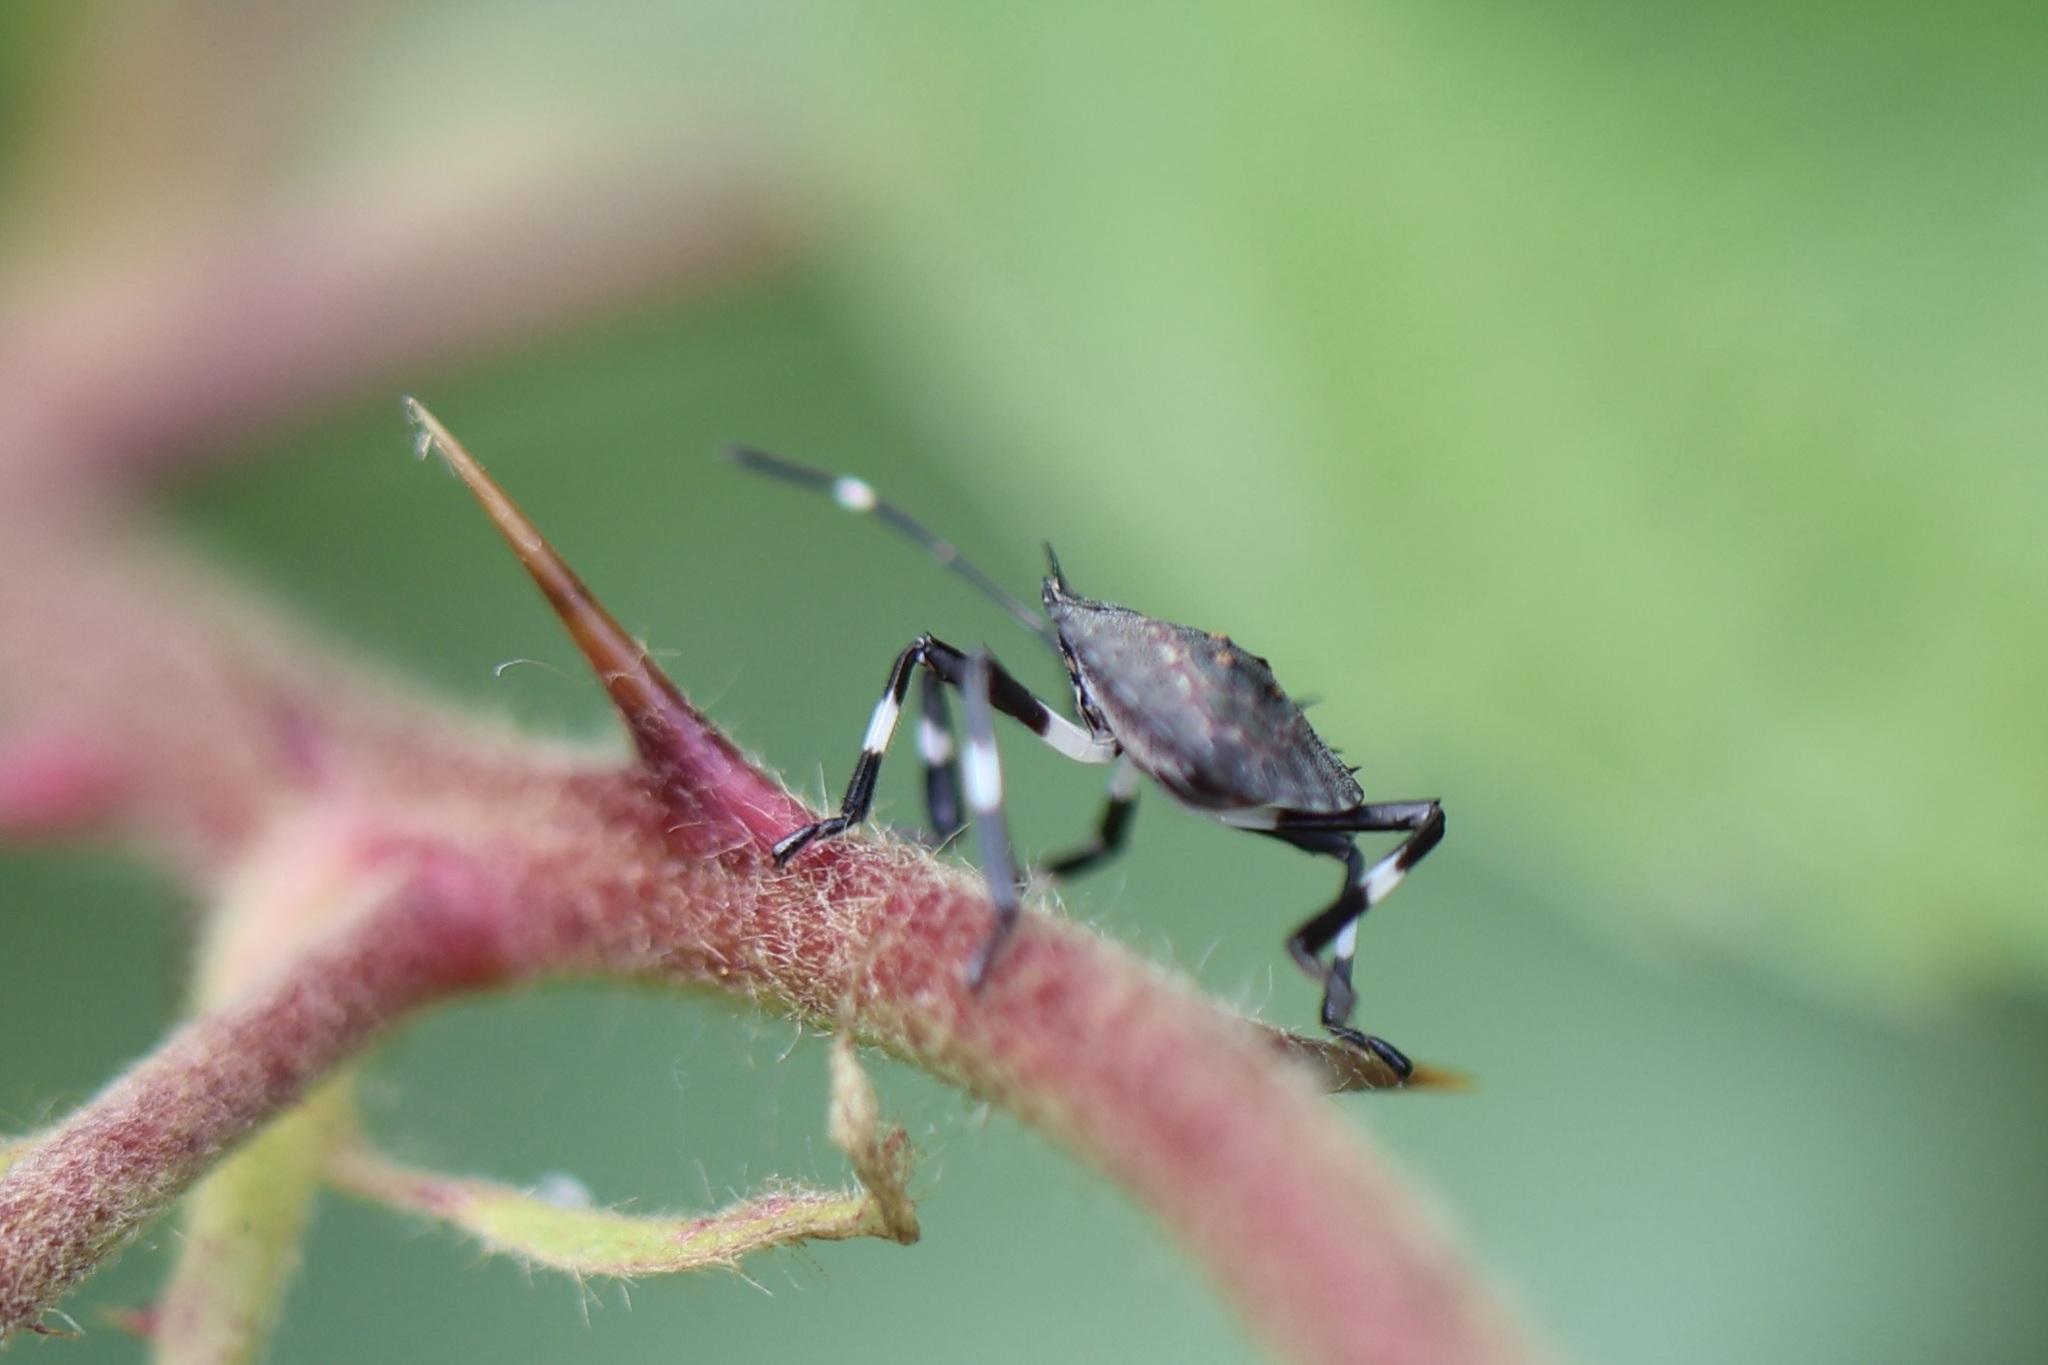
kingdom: Animalia
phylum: Arthropoda
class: Insecta
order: Hemiptera
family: Pentatomidae
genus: Halyomorpha
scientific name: Halyomorpha halys
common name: Brown marmorated stink bug
